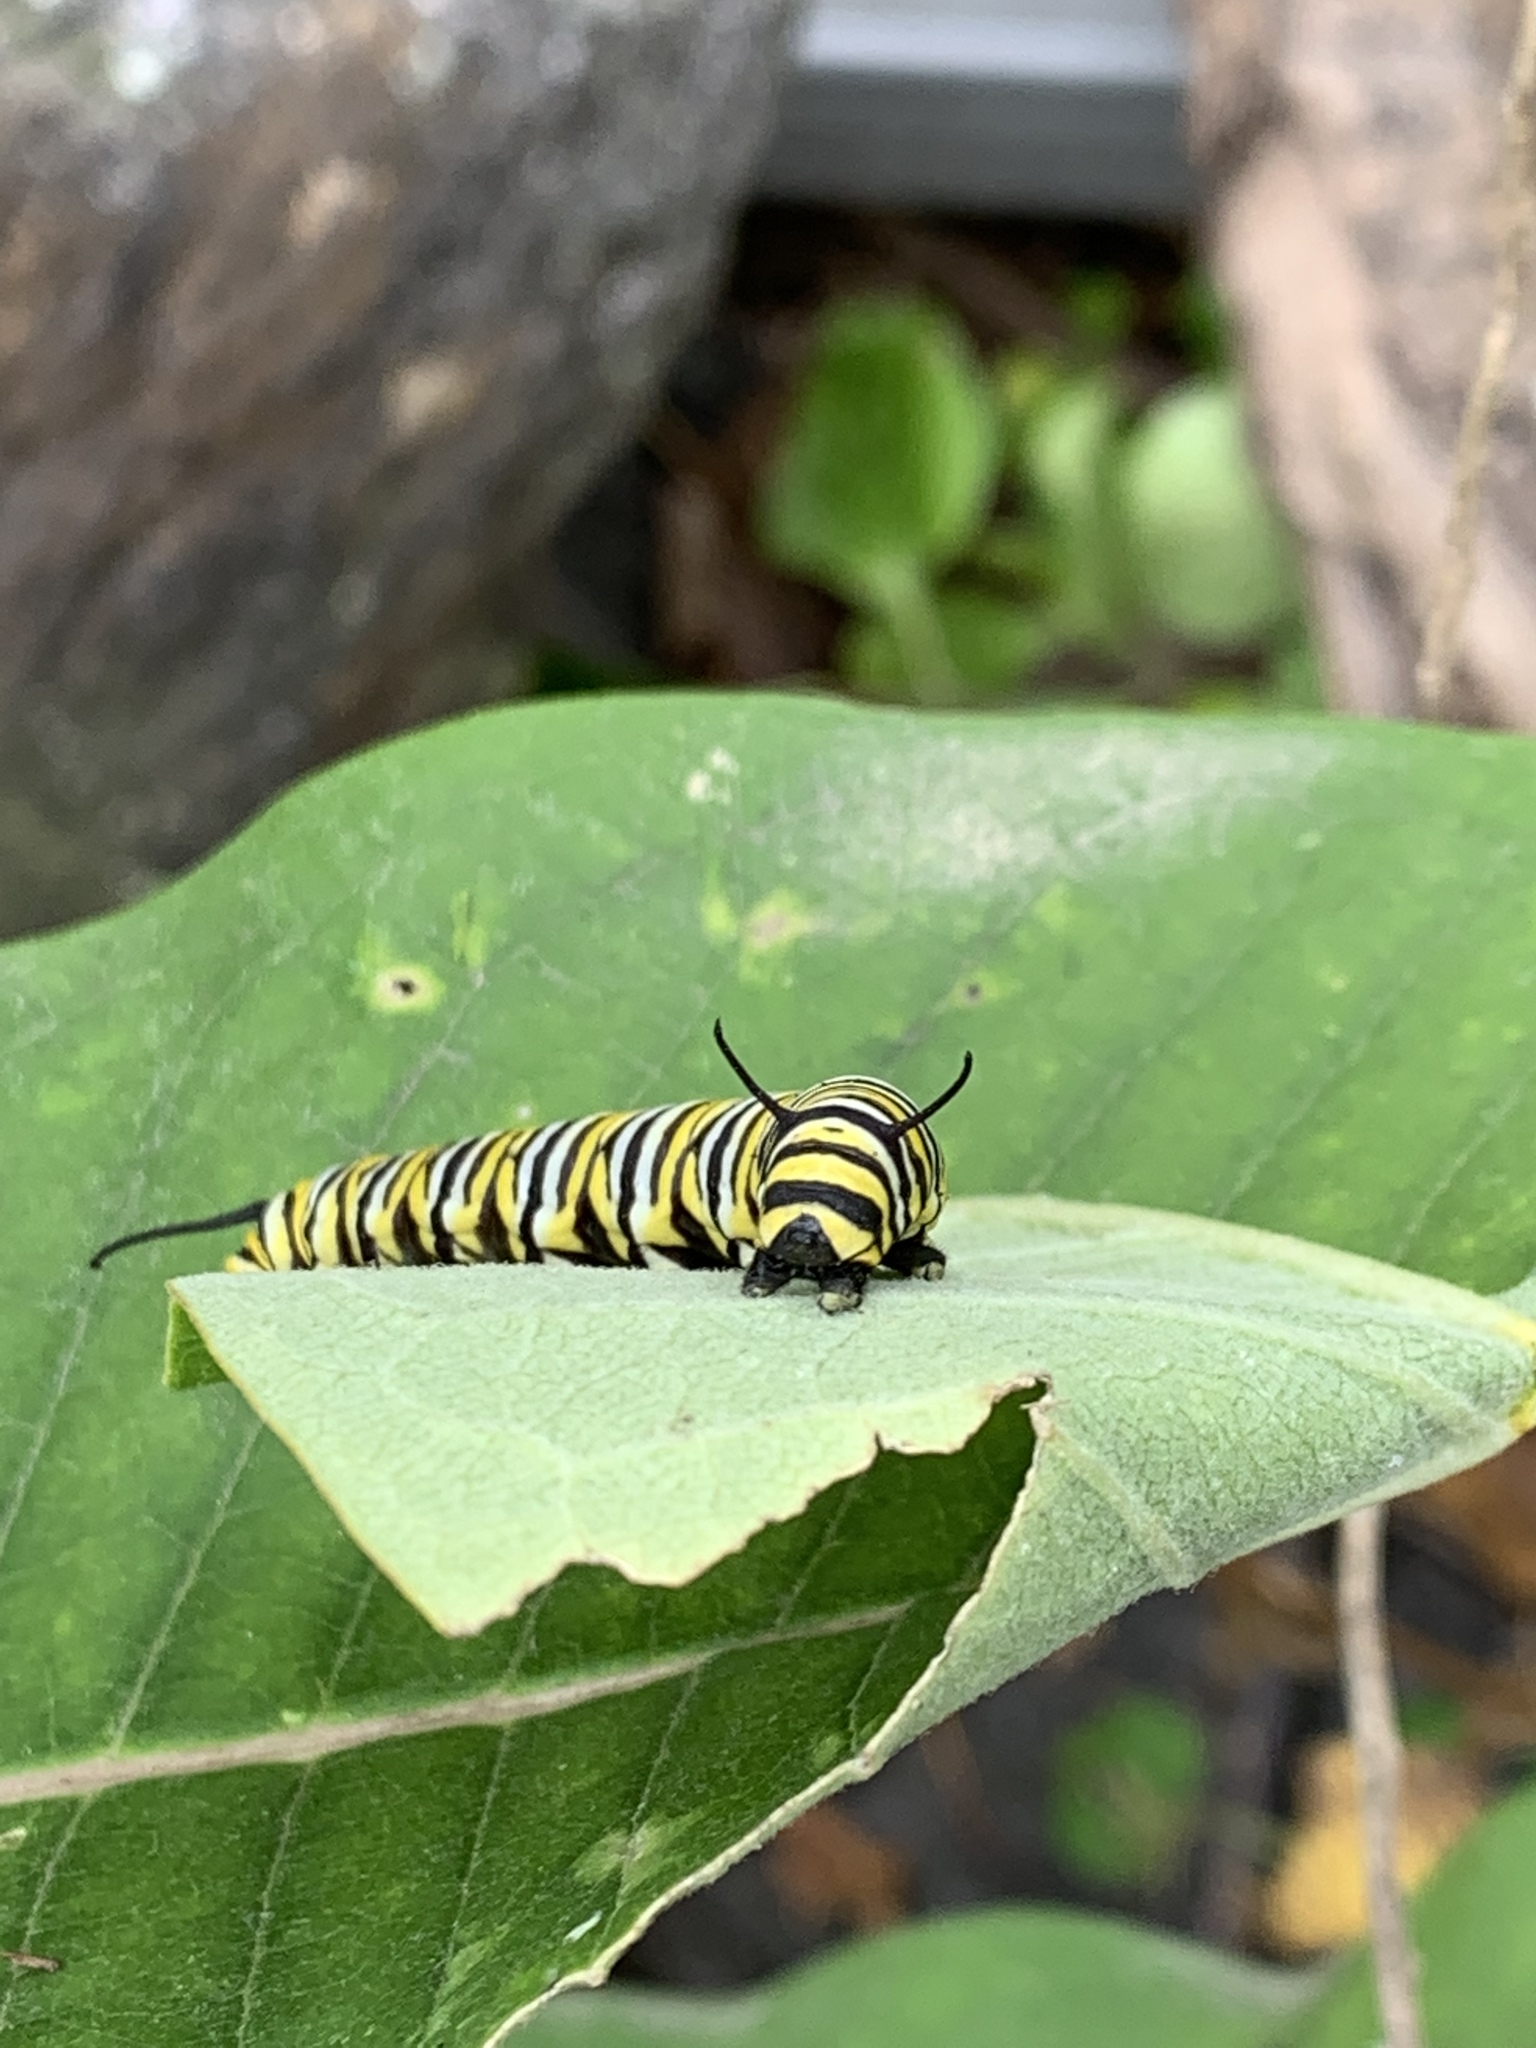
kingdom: Animalia
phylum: Arthropoda
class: Insecta
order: Lepidoptera
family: Nymphalidae
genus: Danaus
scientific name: Danaus plexippus
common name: Monarch
